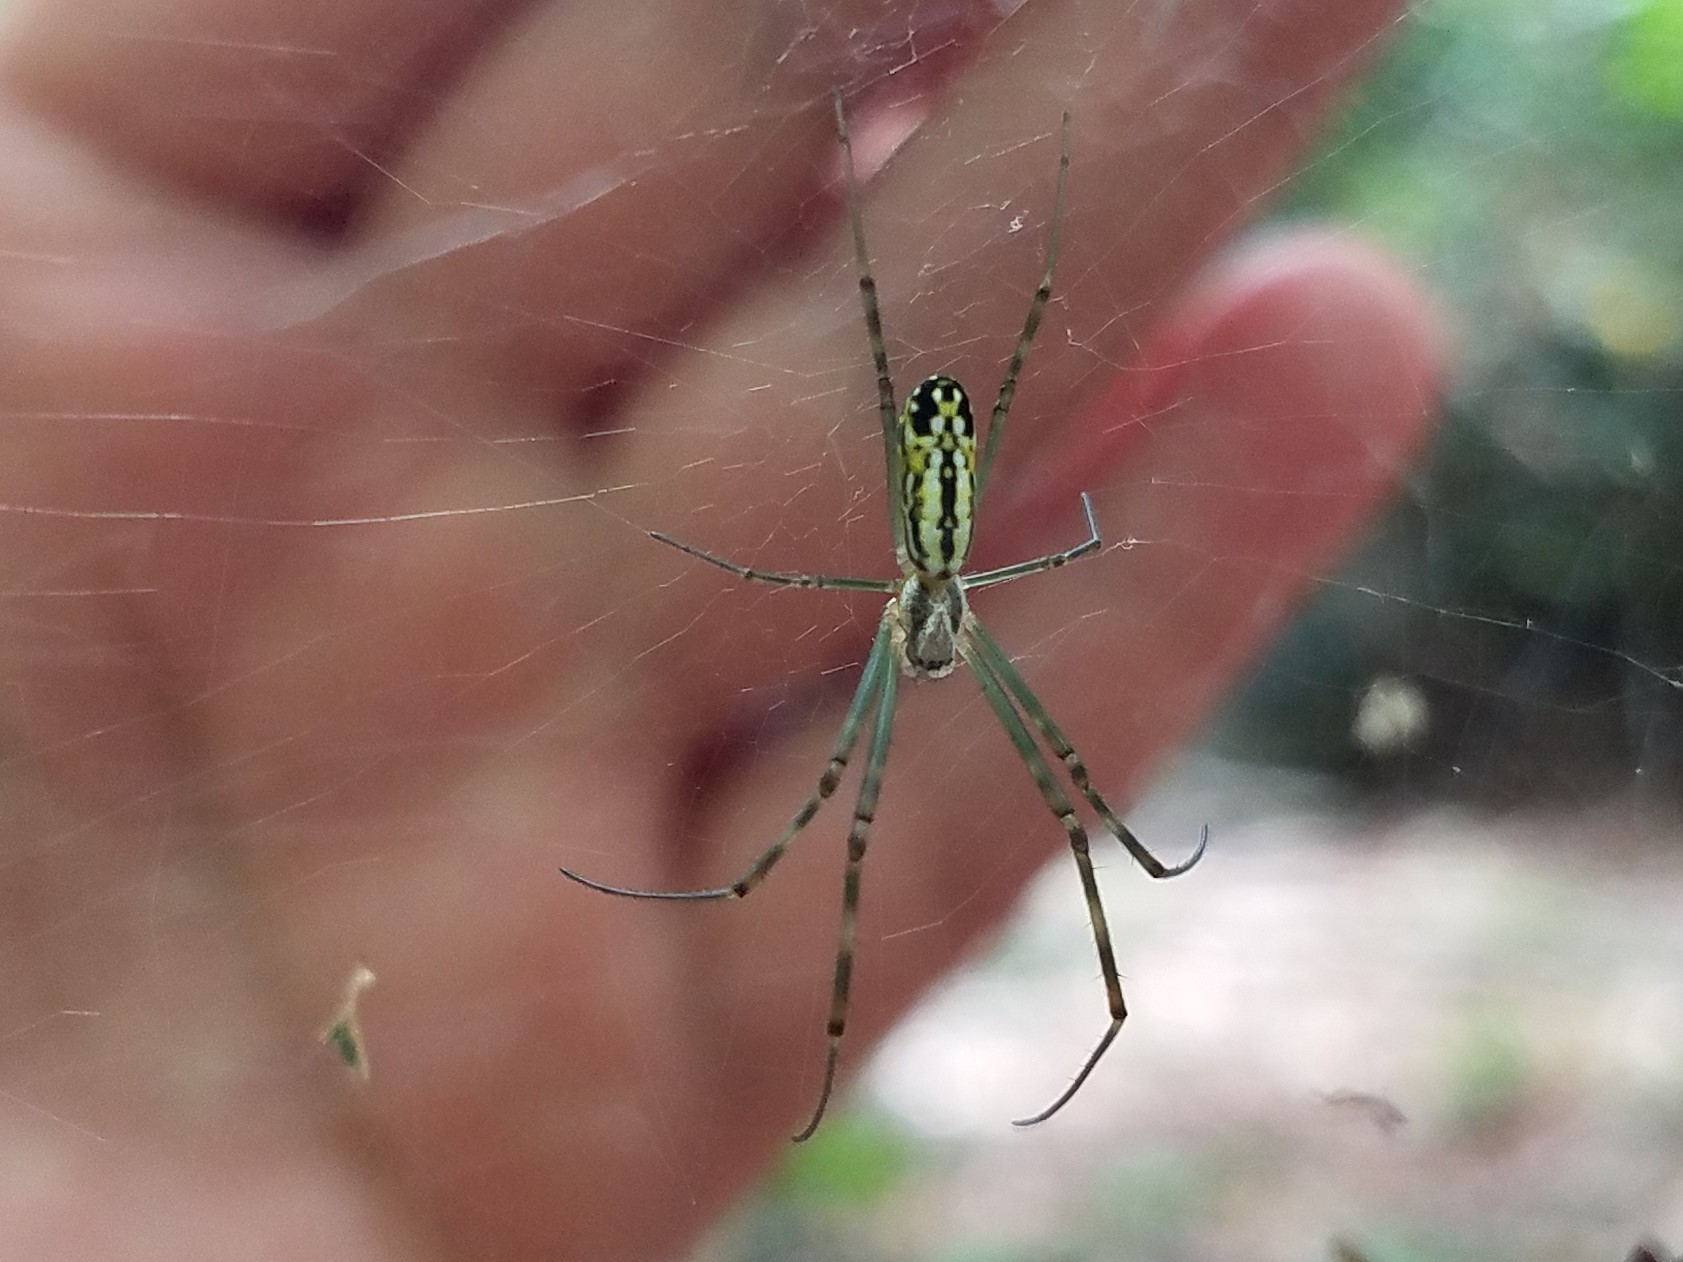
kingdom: Animalia
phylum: Arthropoda
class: Arachnida
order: Araneae
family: Araneidae
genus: Trichonephila
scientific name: Trichonephila clavata
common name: Jorō spider
